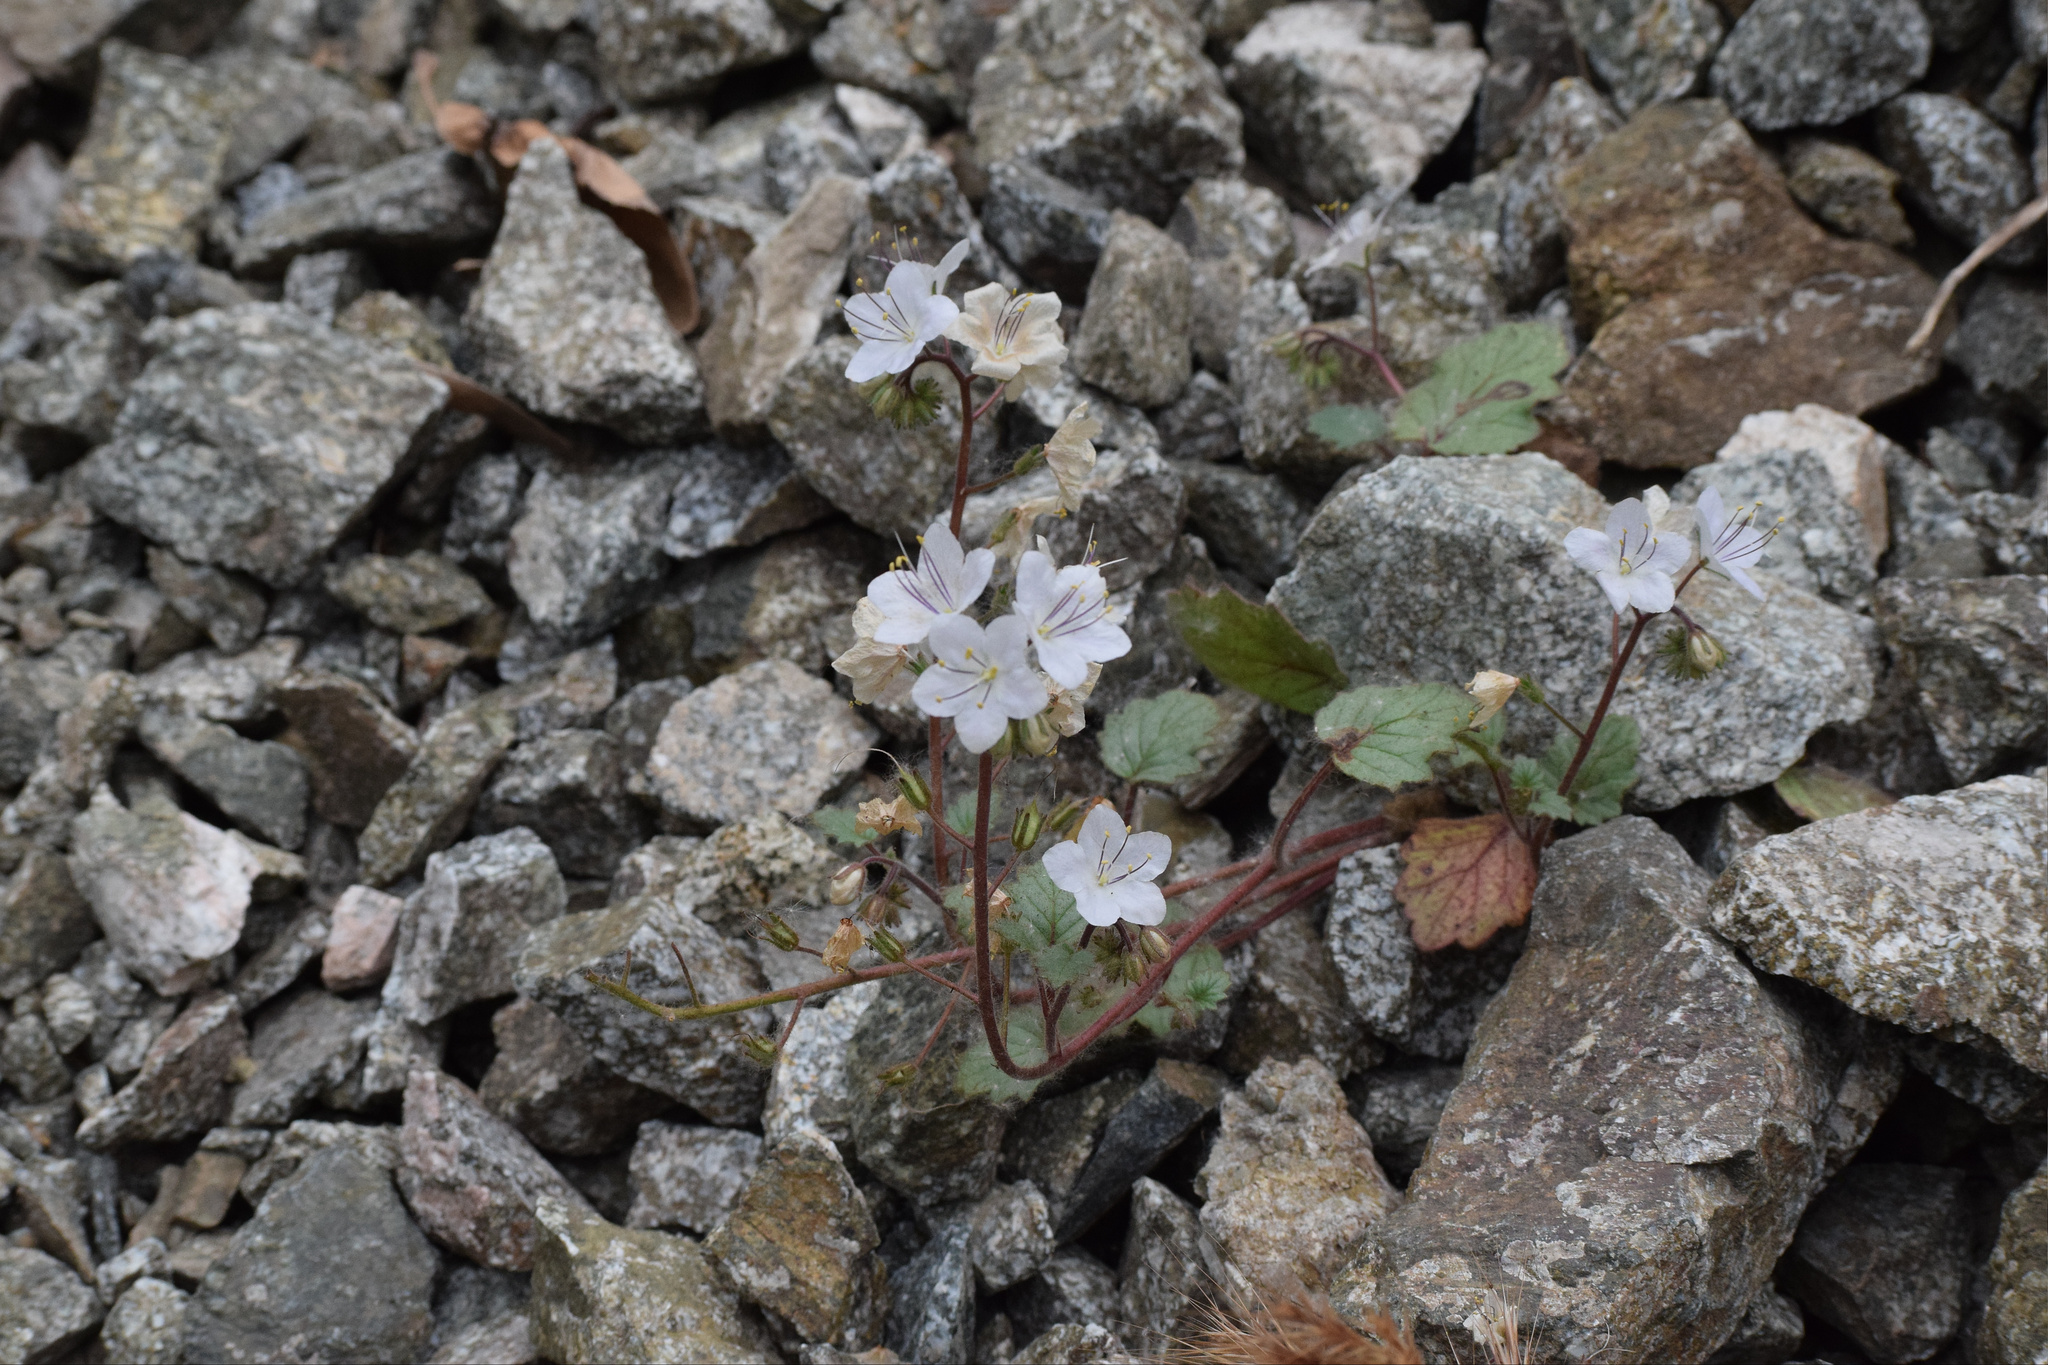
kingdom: Plantae
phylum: Tracheophyta
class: Magnoliopsida
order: Boraginales
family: Hydrophyllaceae
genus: Phacelia
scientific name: Phacelia longipes
